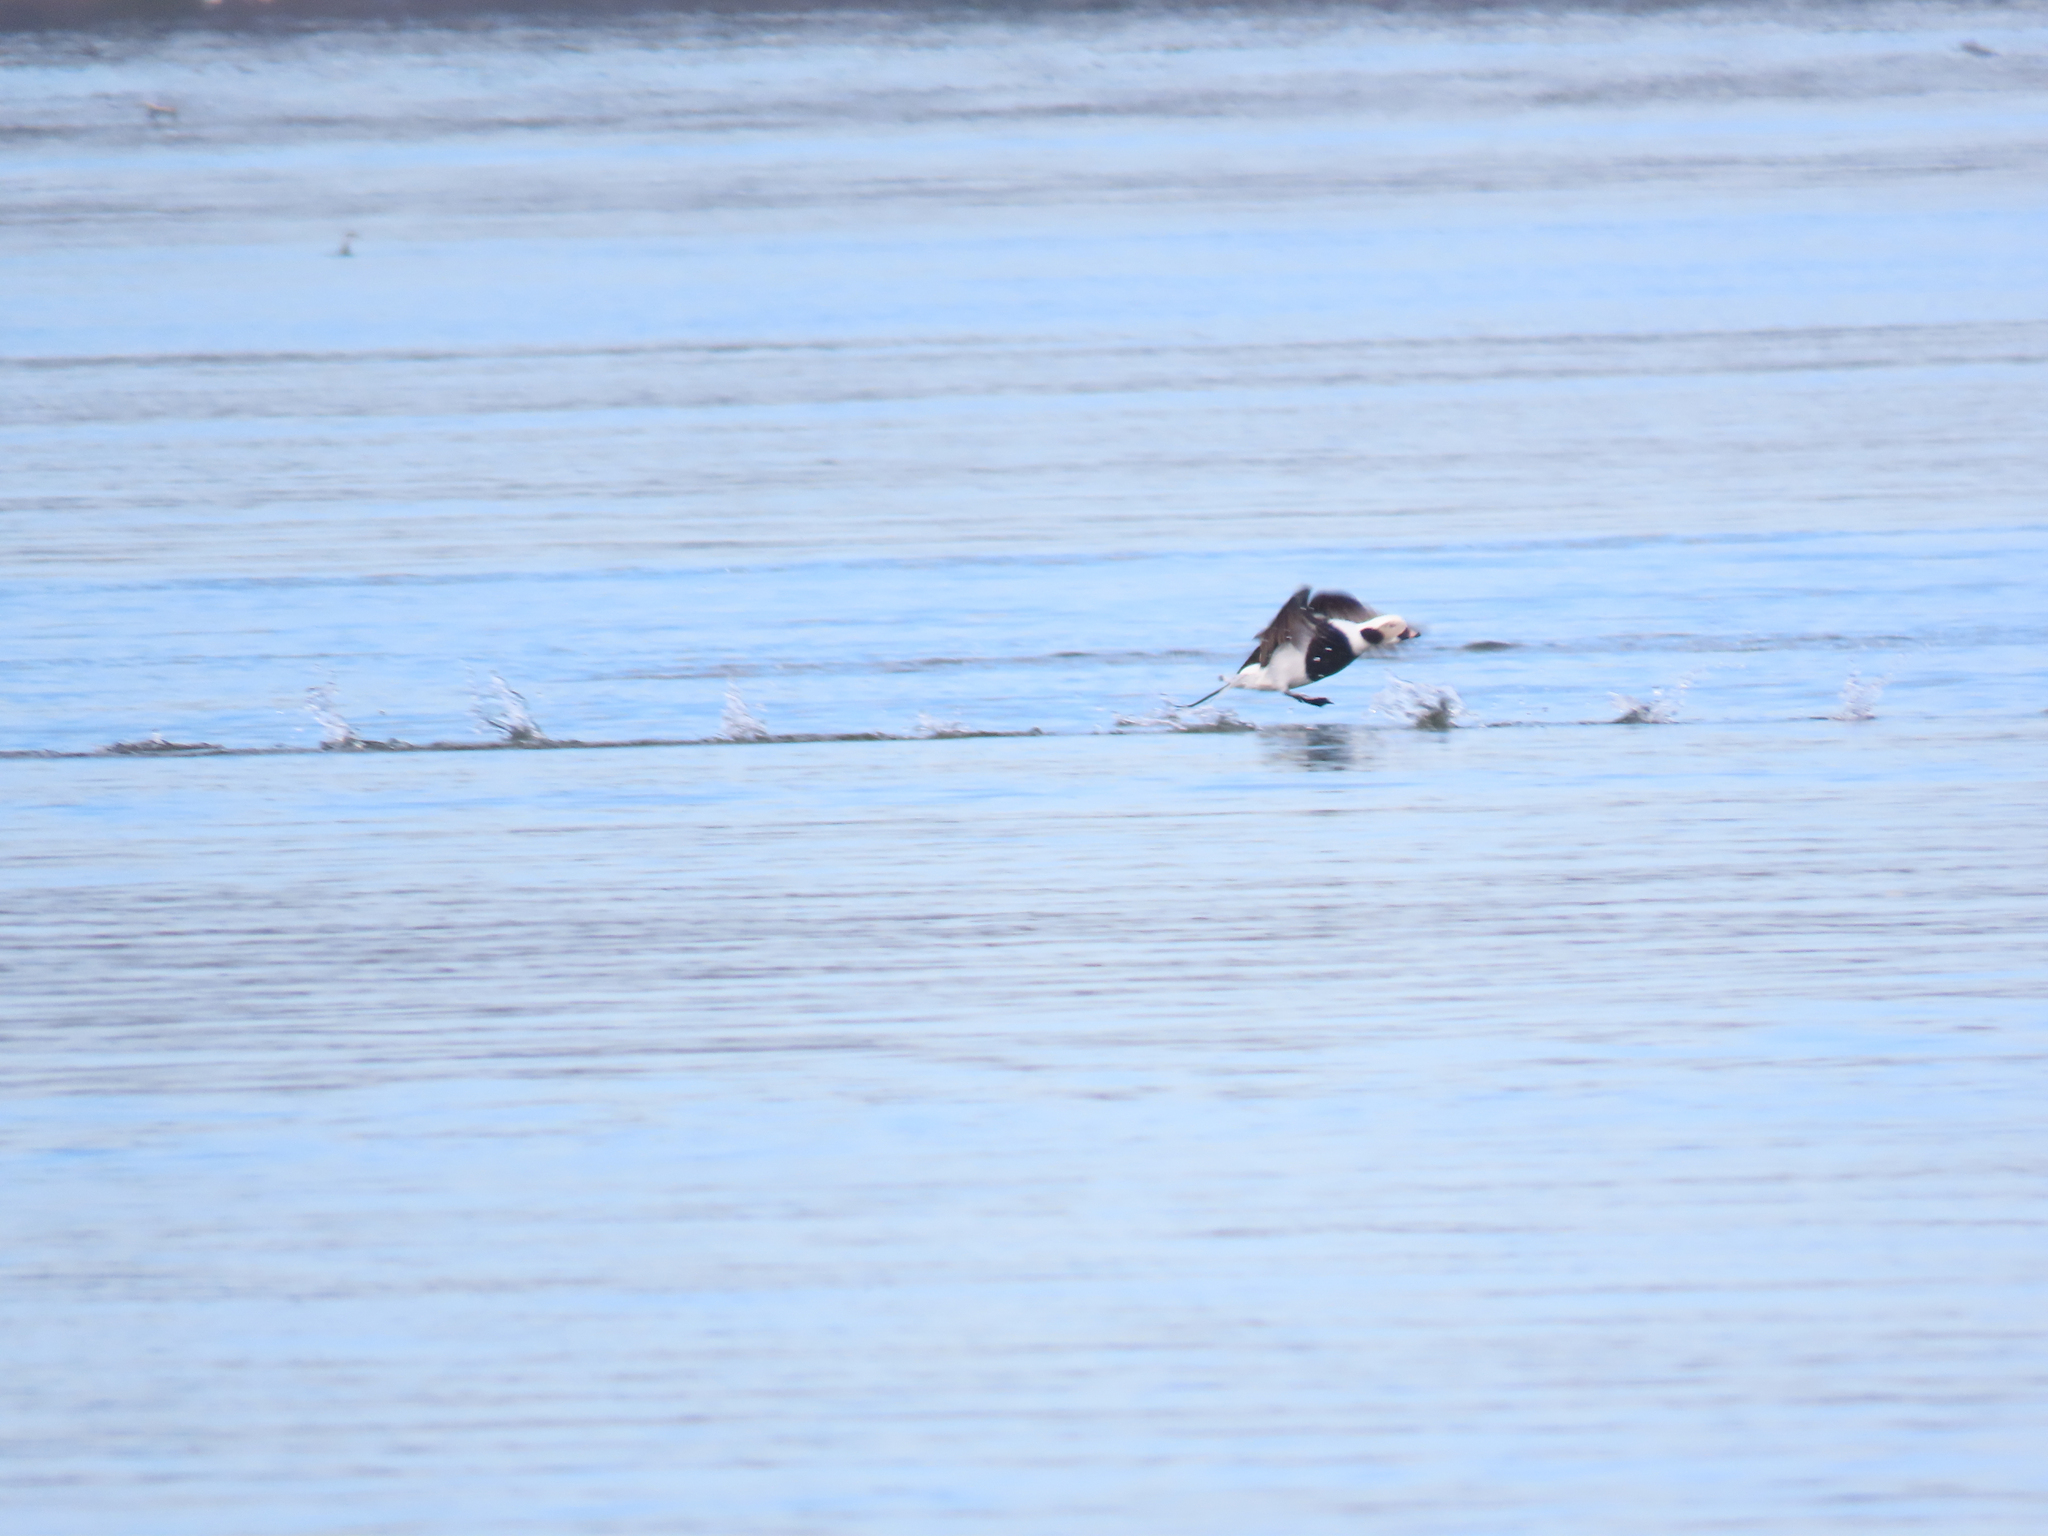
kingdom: Animalia
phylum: Chordata
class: Aves
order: Anseriformes
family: Anatidae
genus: Clangula
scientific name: Clangula hyemalis
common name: Long-tailed duck
